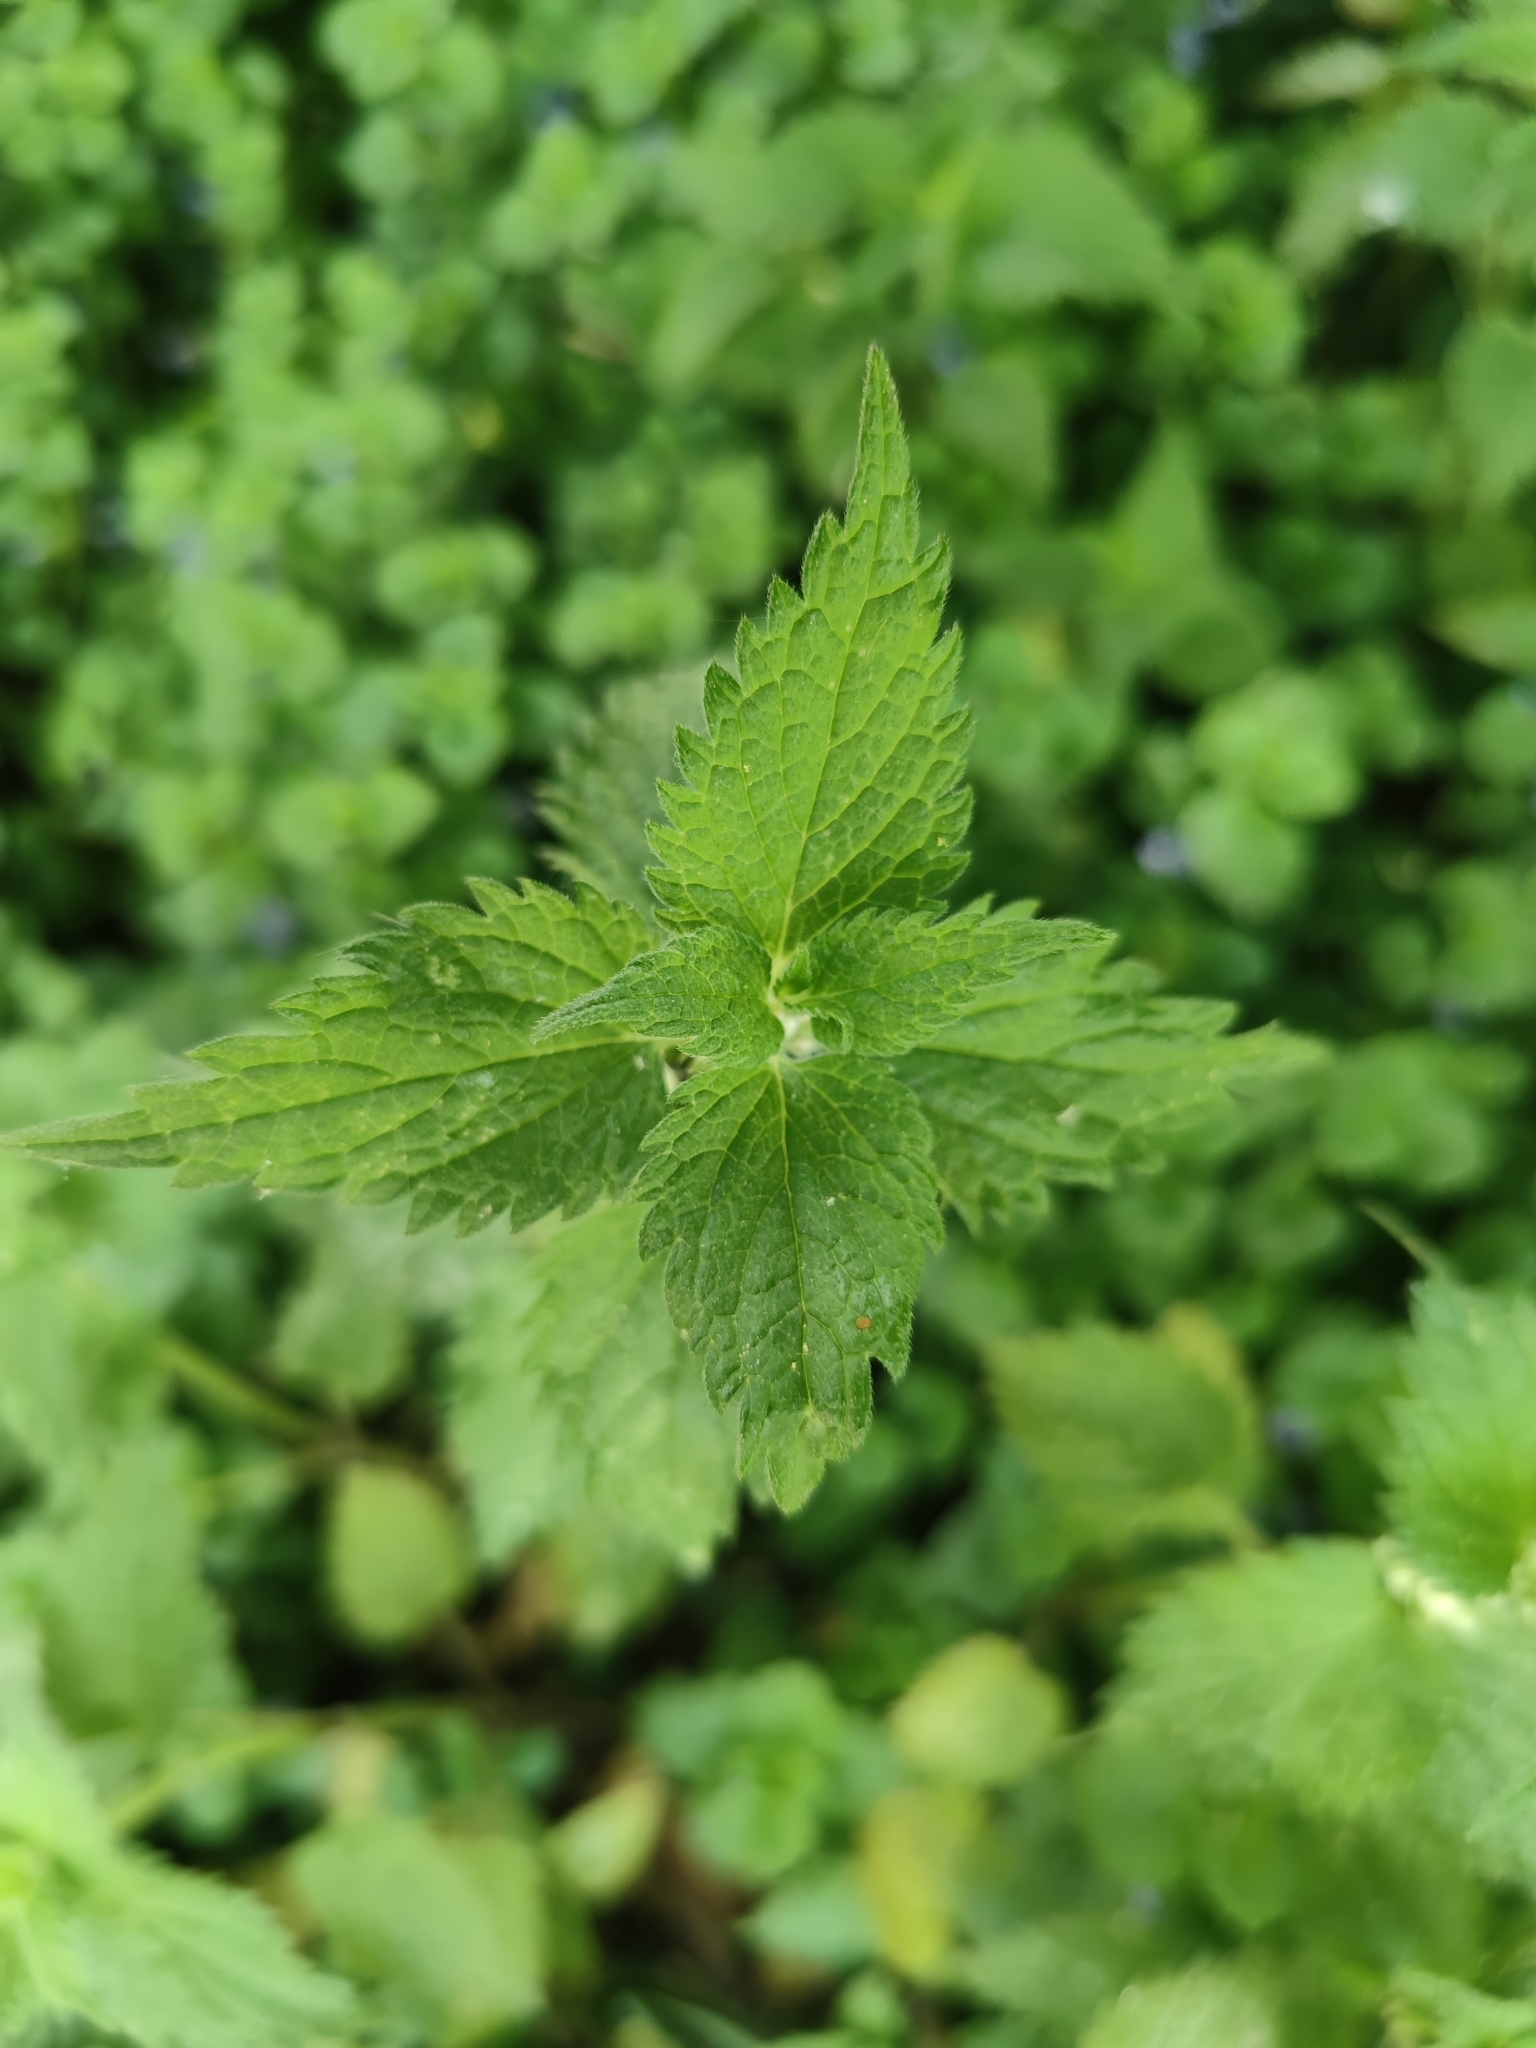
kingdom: Plantae
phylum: Tracheophyta
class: Magnoliopsida
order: Lamiales
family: Lamiaceae
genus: Lamium
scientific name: Lamium album
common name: White dead-nettle
